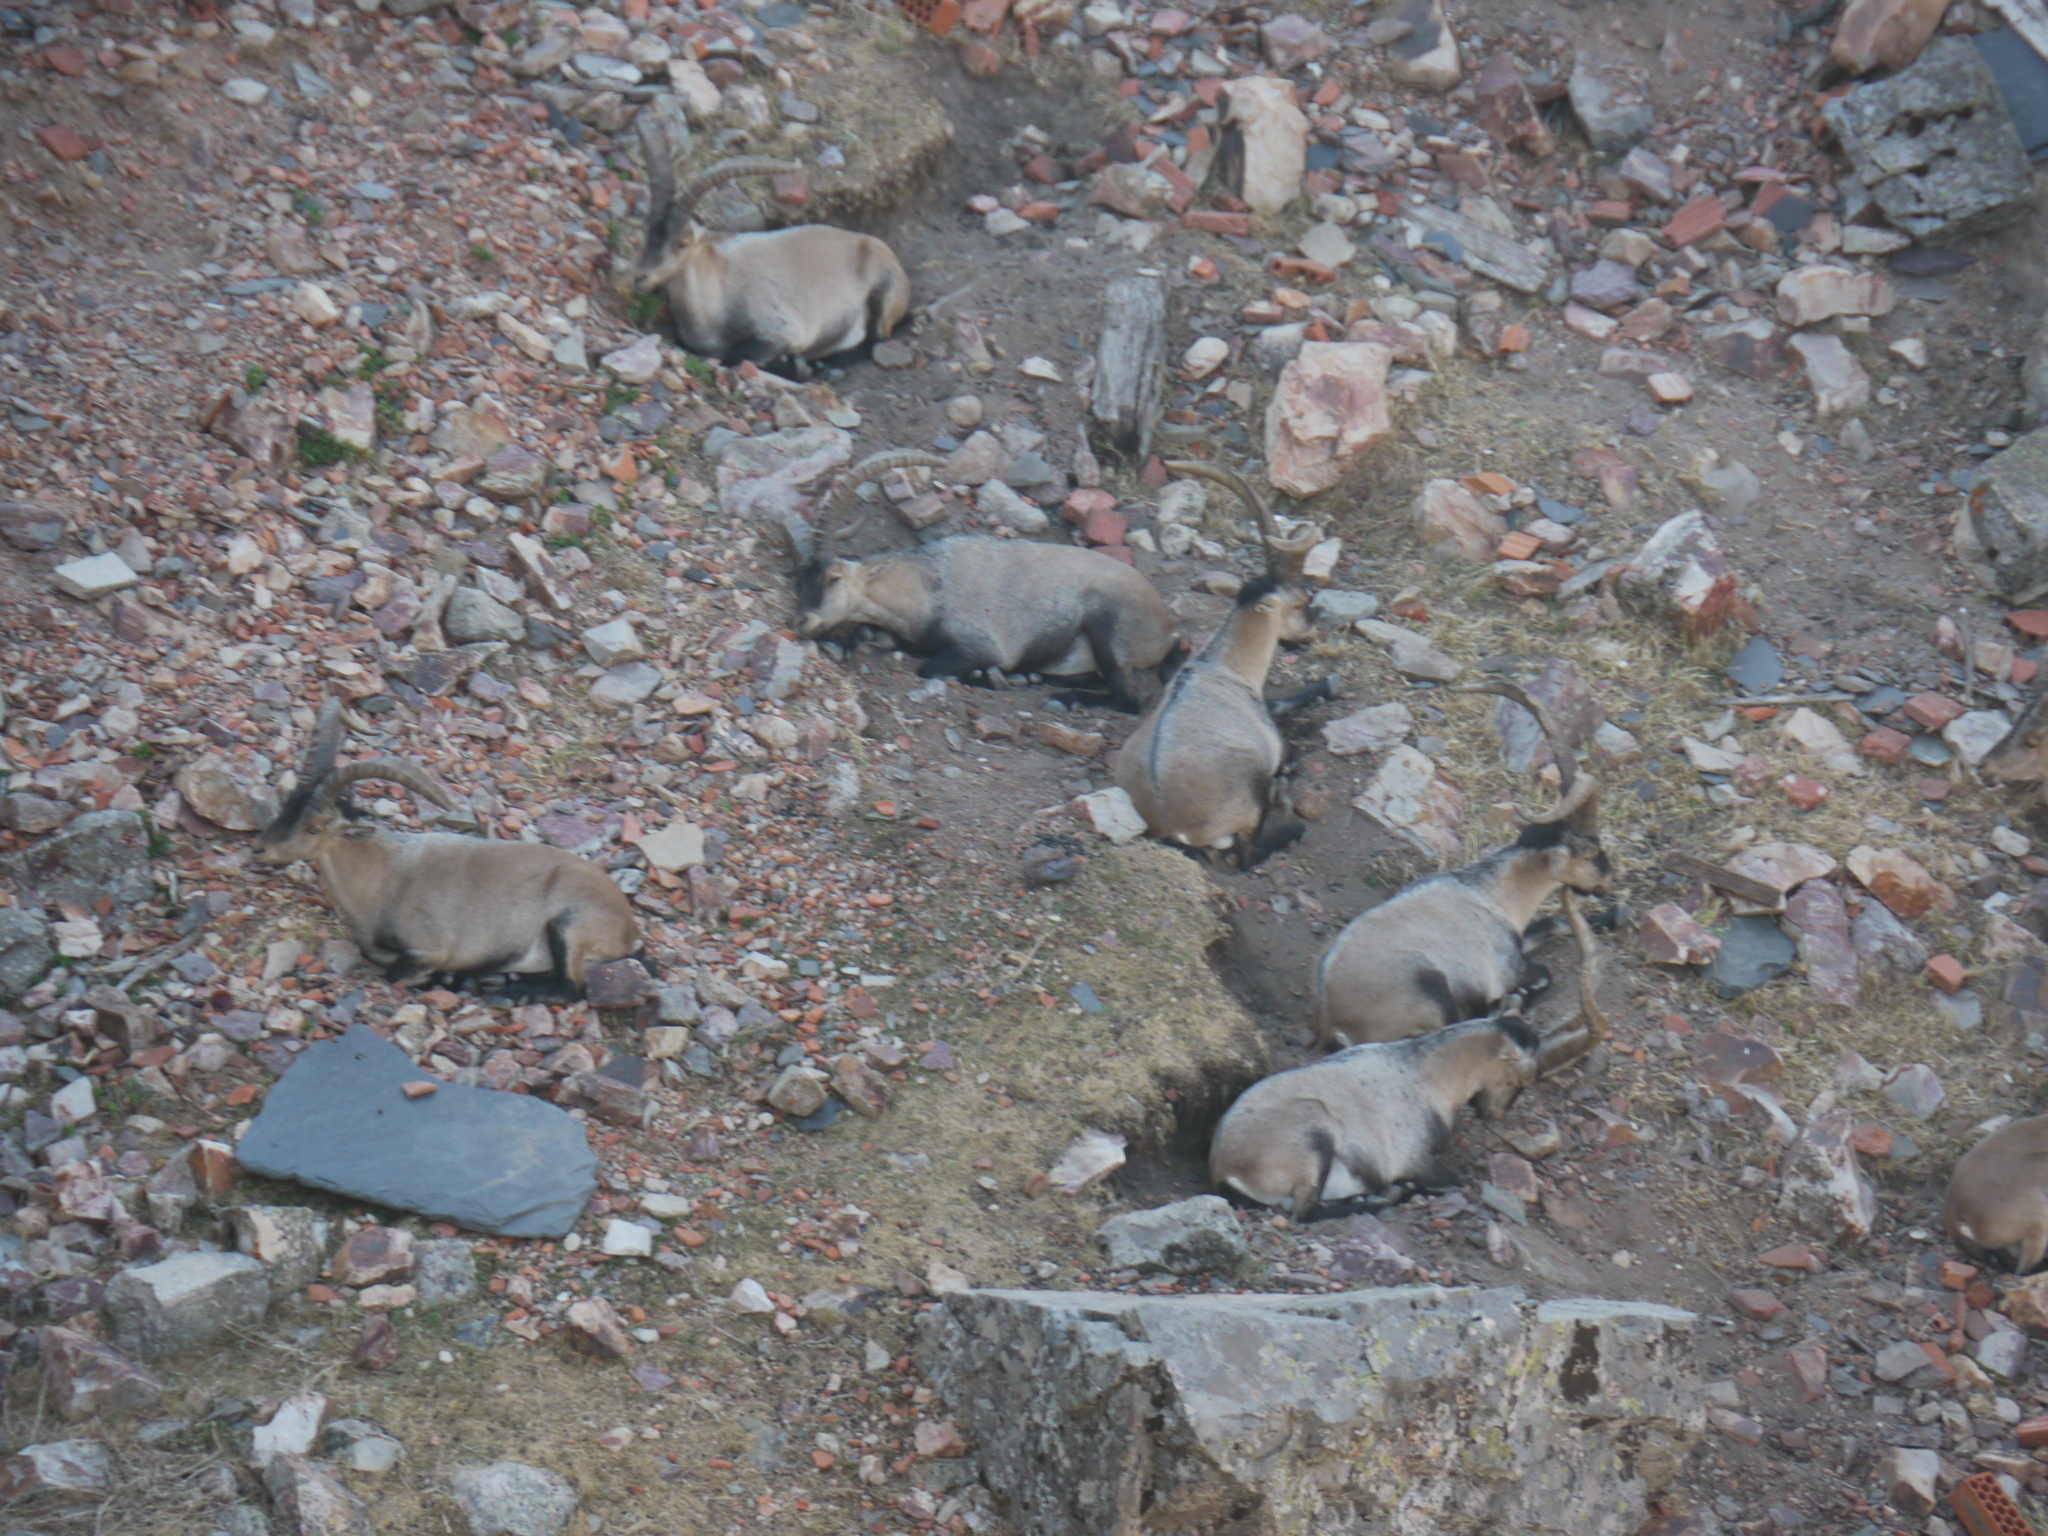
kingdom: Animalia
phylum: Chordata
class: Mammalia
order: Artiodactyla
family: Bovidae
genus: Capra
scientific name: Capra pyrenaica
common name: Spanish ibex
